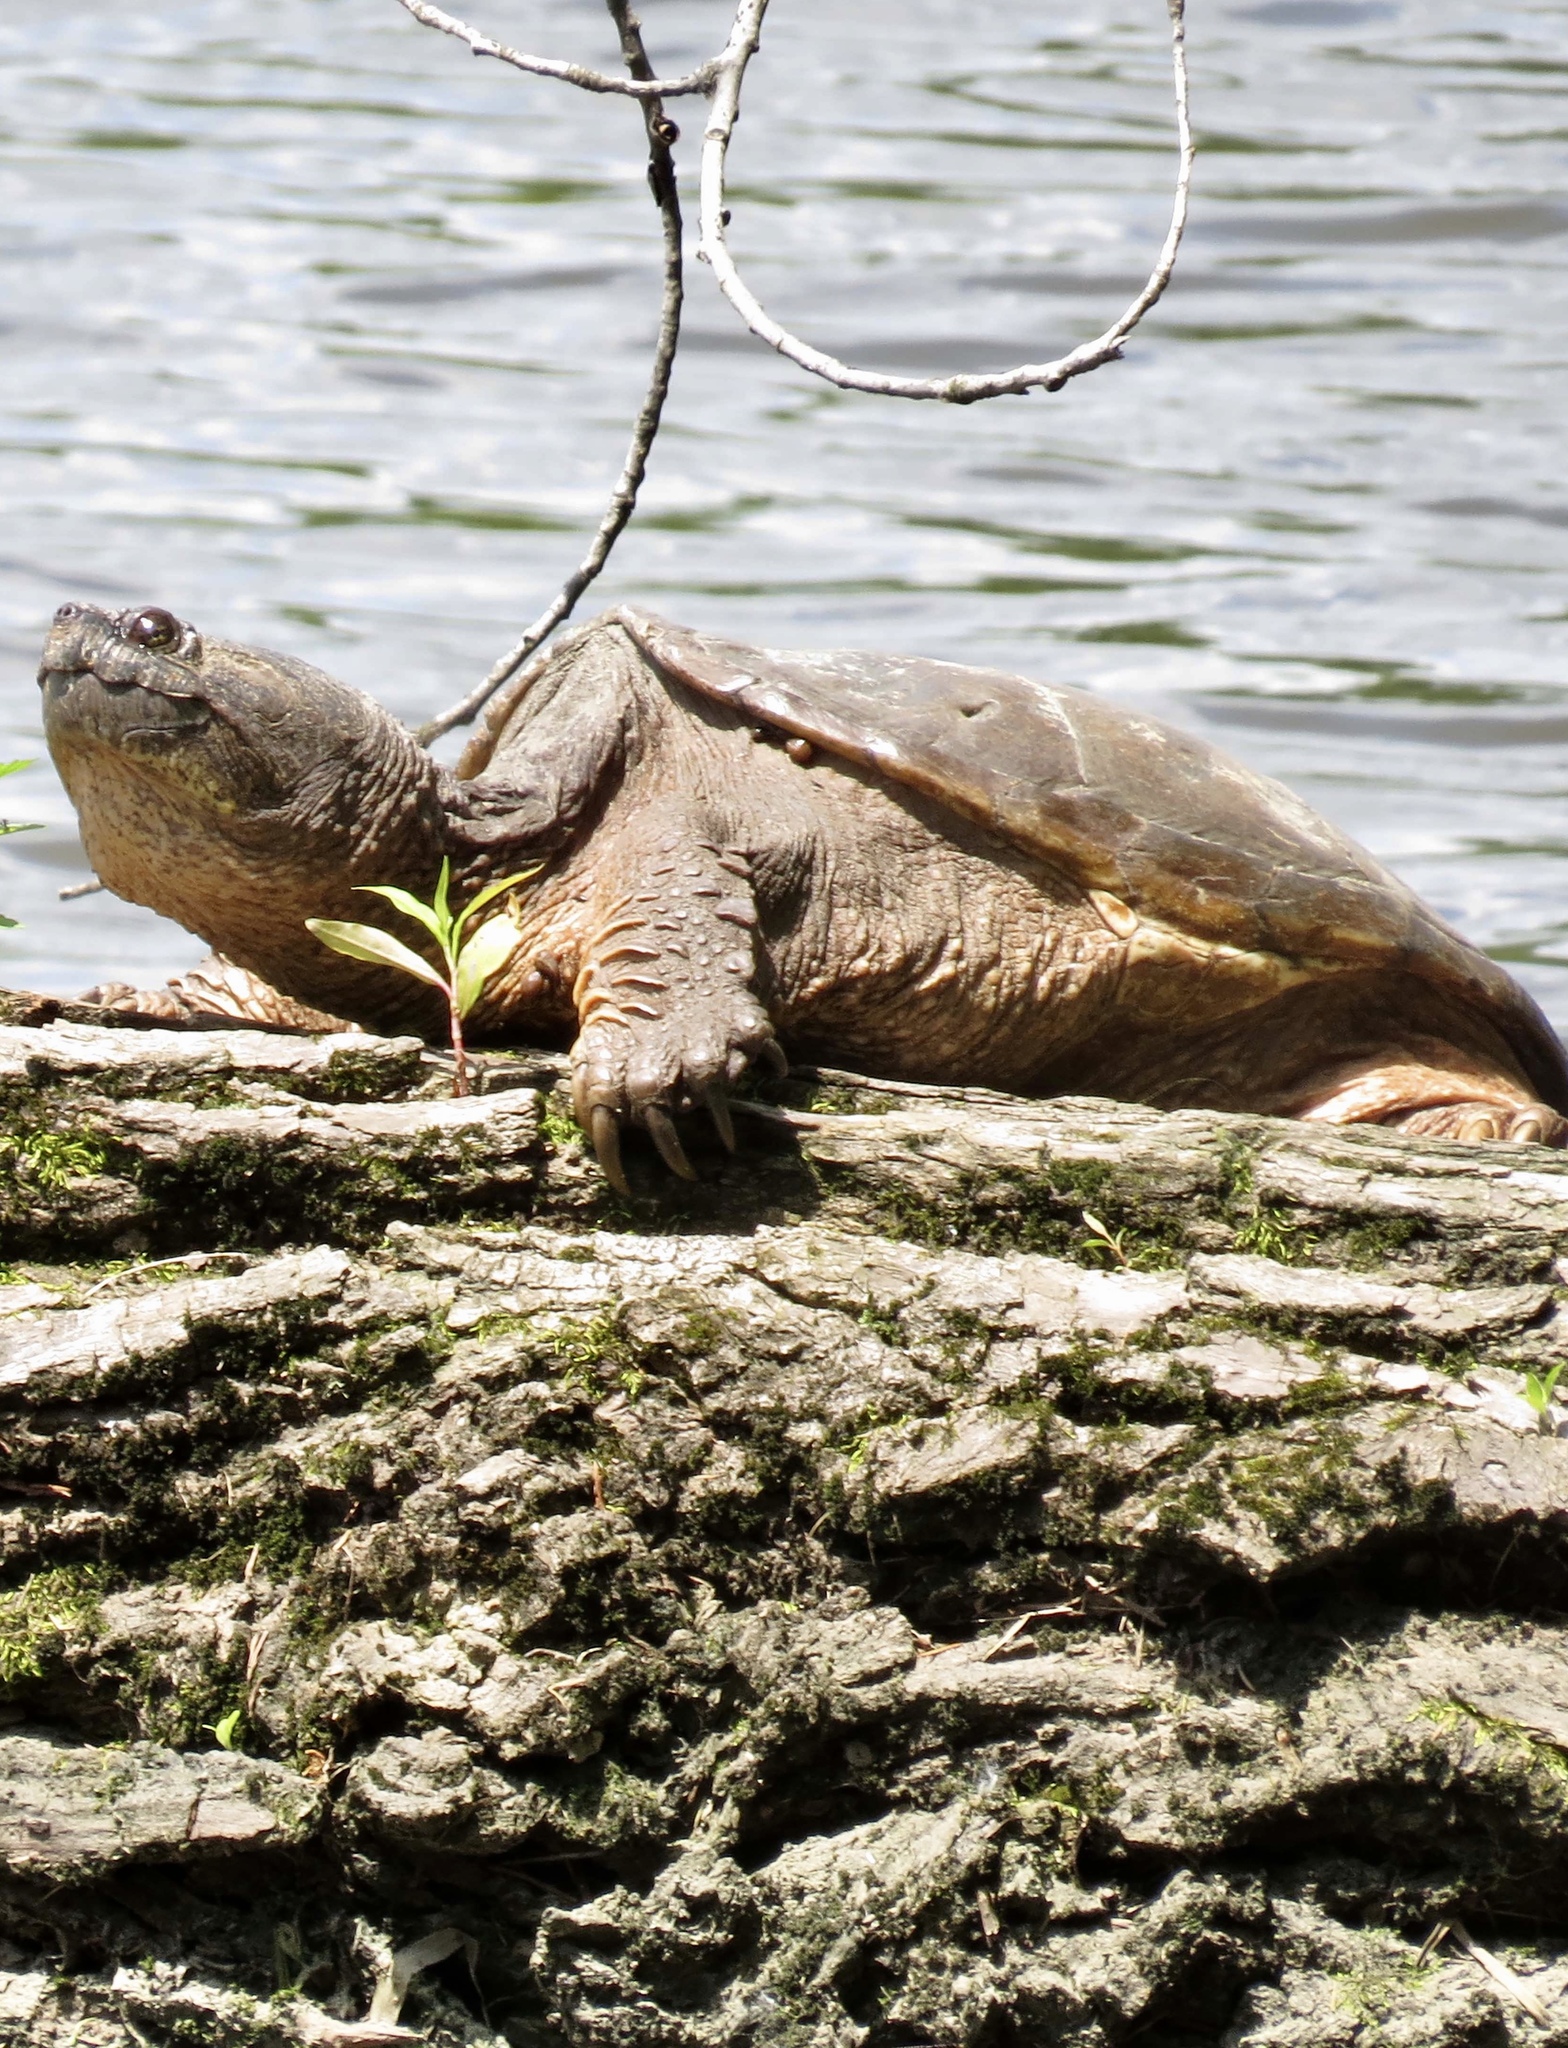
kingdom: Animalia
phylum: Chordata
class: Testudines
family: Chelydridae
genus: Chelydra
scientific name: Chelydra serpentina
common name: Common snapping turtle
